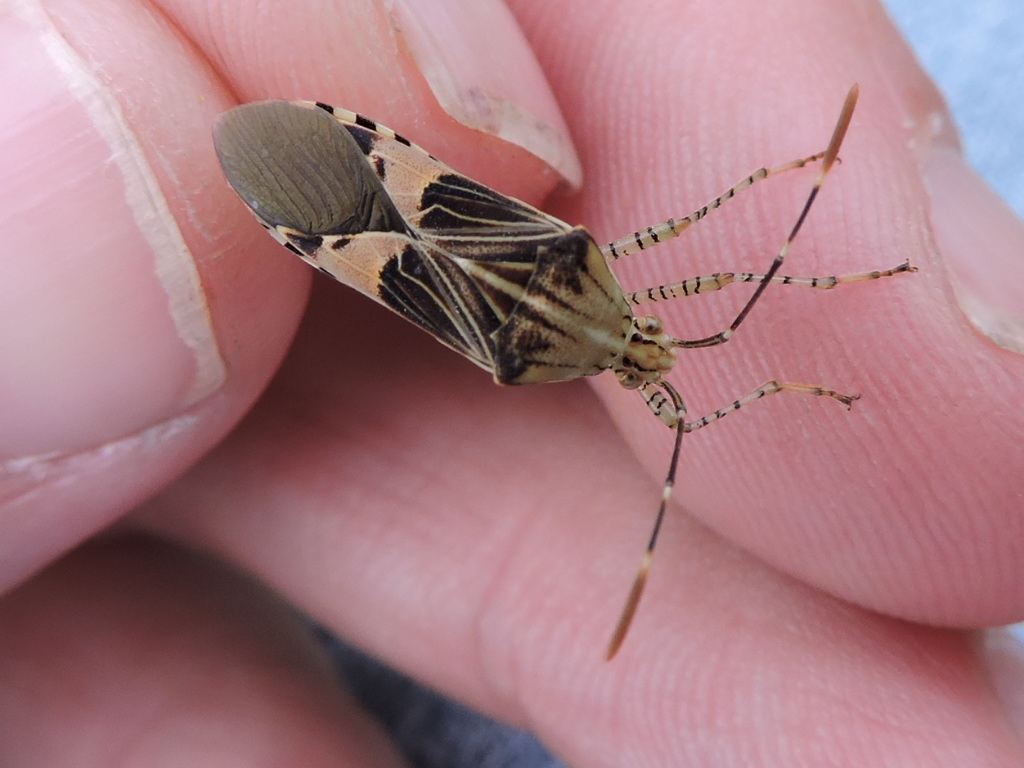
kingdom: Animalia
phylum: Arthropoda
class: Insecta
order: Hemiptera
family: Coreidae
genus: Hypselonotus
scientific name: Hypselonotus punctiventris
